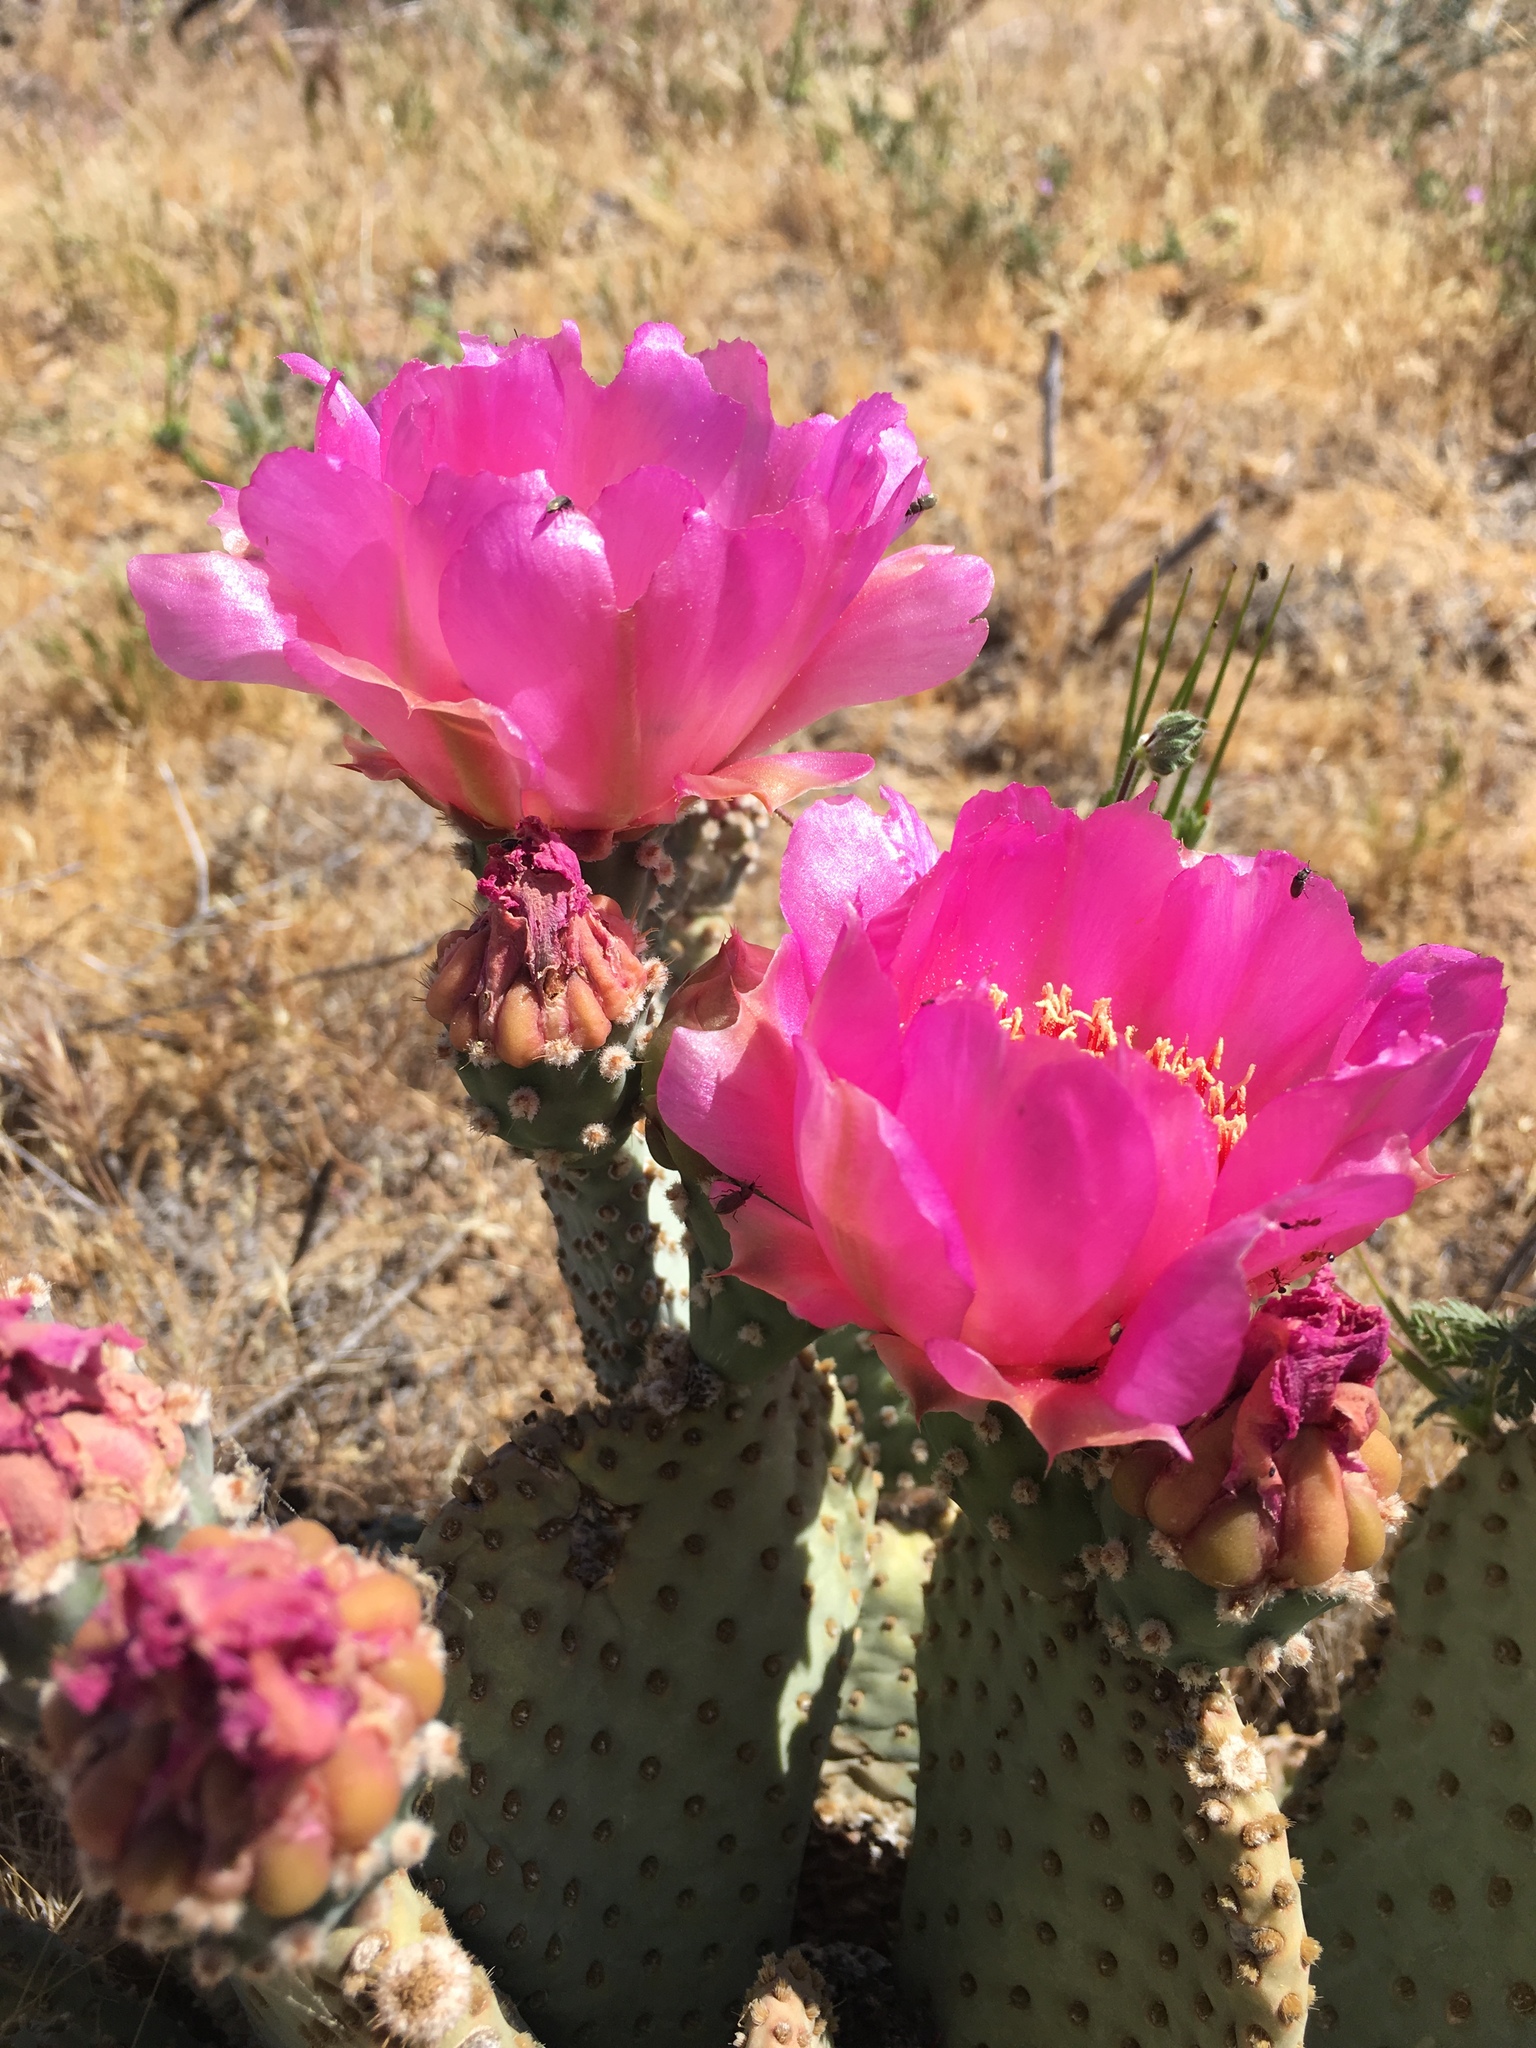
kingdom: Plantae
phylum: Tracheophyta
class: Magnoliopsida
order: Caryophyllales
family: Cactaceae
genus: Opuntia
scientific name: Opuntia basilaris
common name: Beavertail prickly-pear
